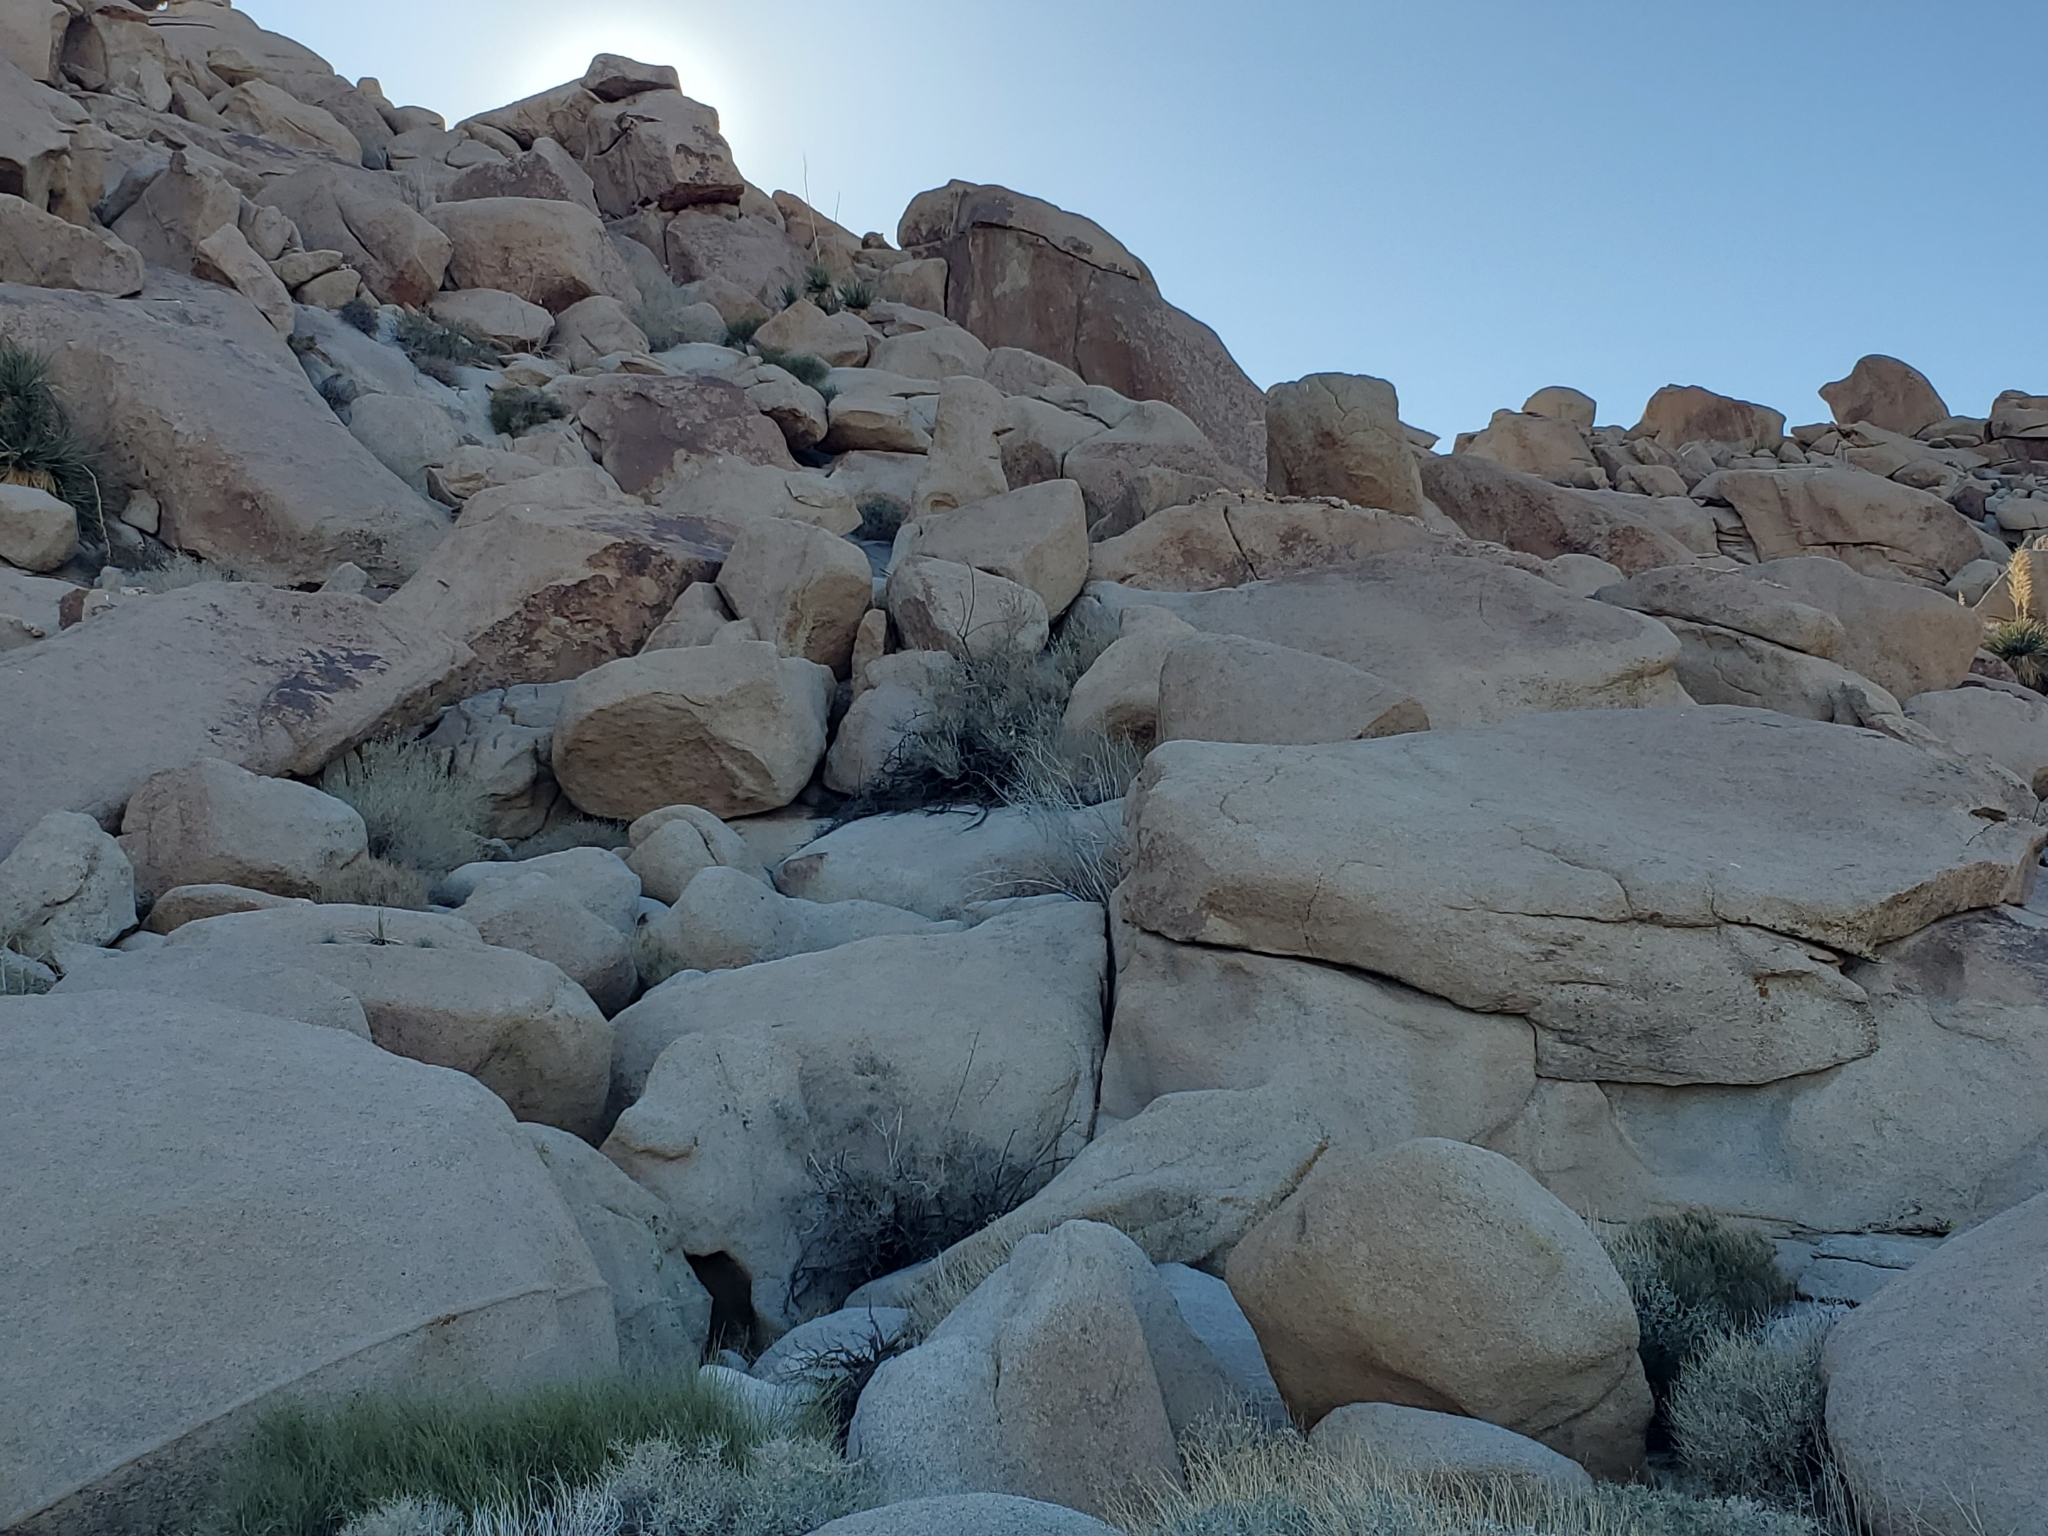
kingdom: Plantae
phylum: Tracheophyta
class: Magnoliopsida
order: Gentianales
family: Apocynaceae
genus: Asclepias
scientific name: Asclepias albicans
